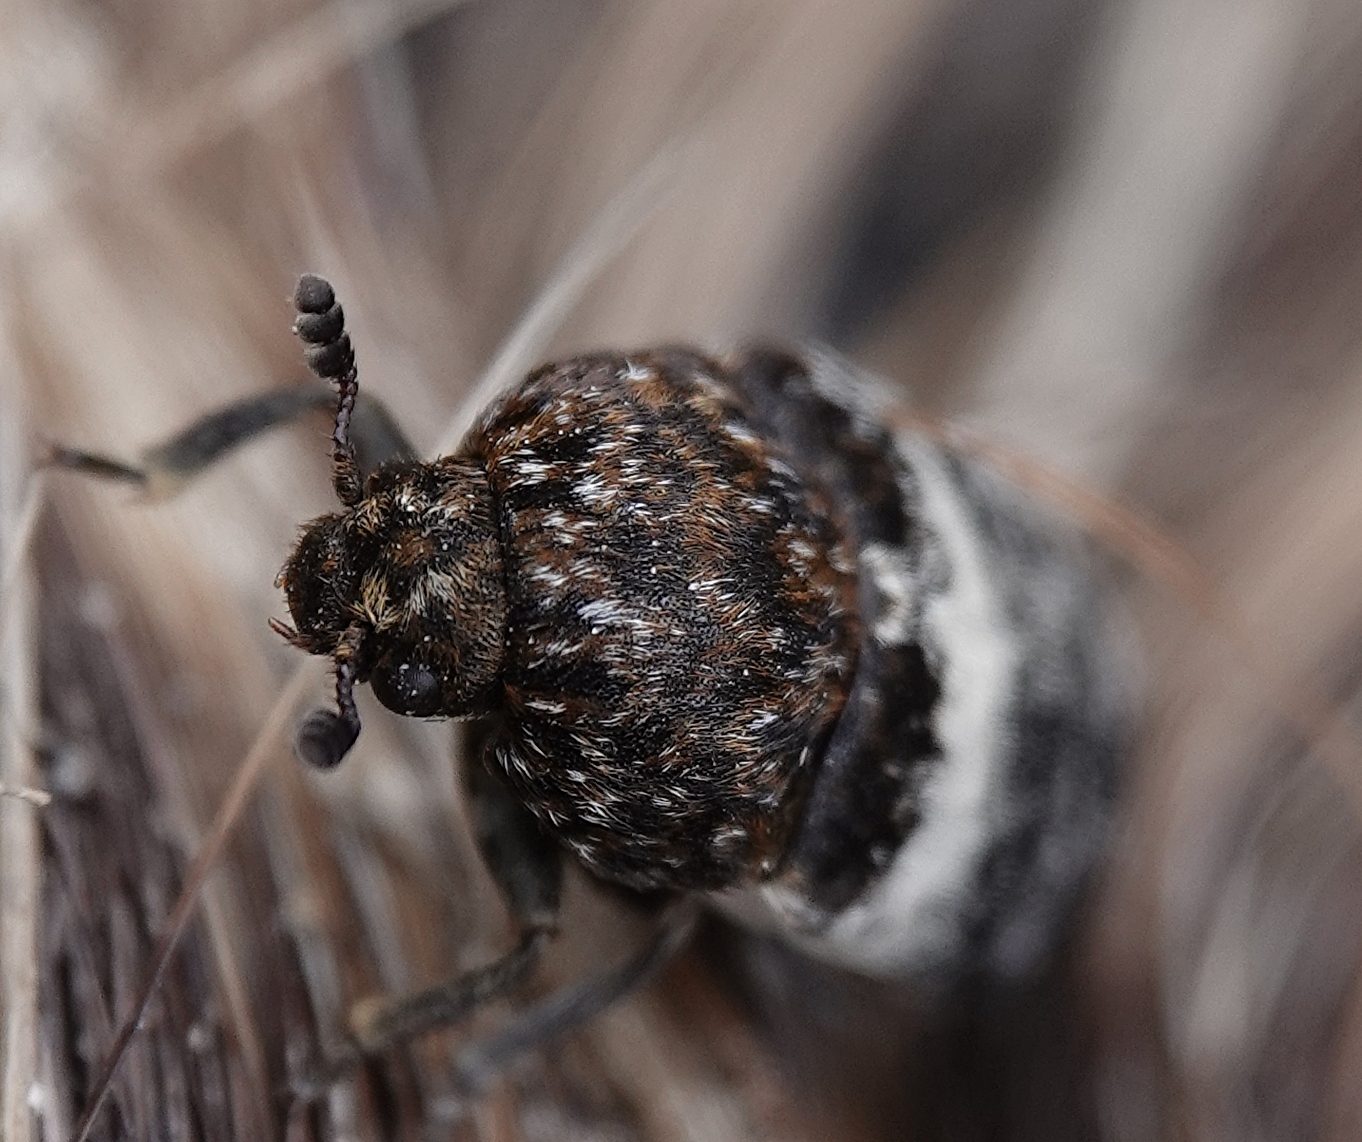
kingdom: Animalia
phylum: Arthropoda
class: Insecta
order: Coleoptera
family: Dermestidae
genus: Dermestes
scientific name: Dermestes fasciatus
